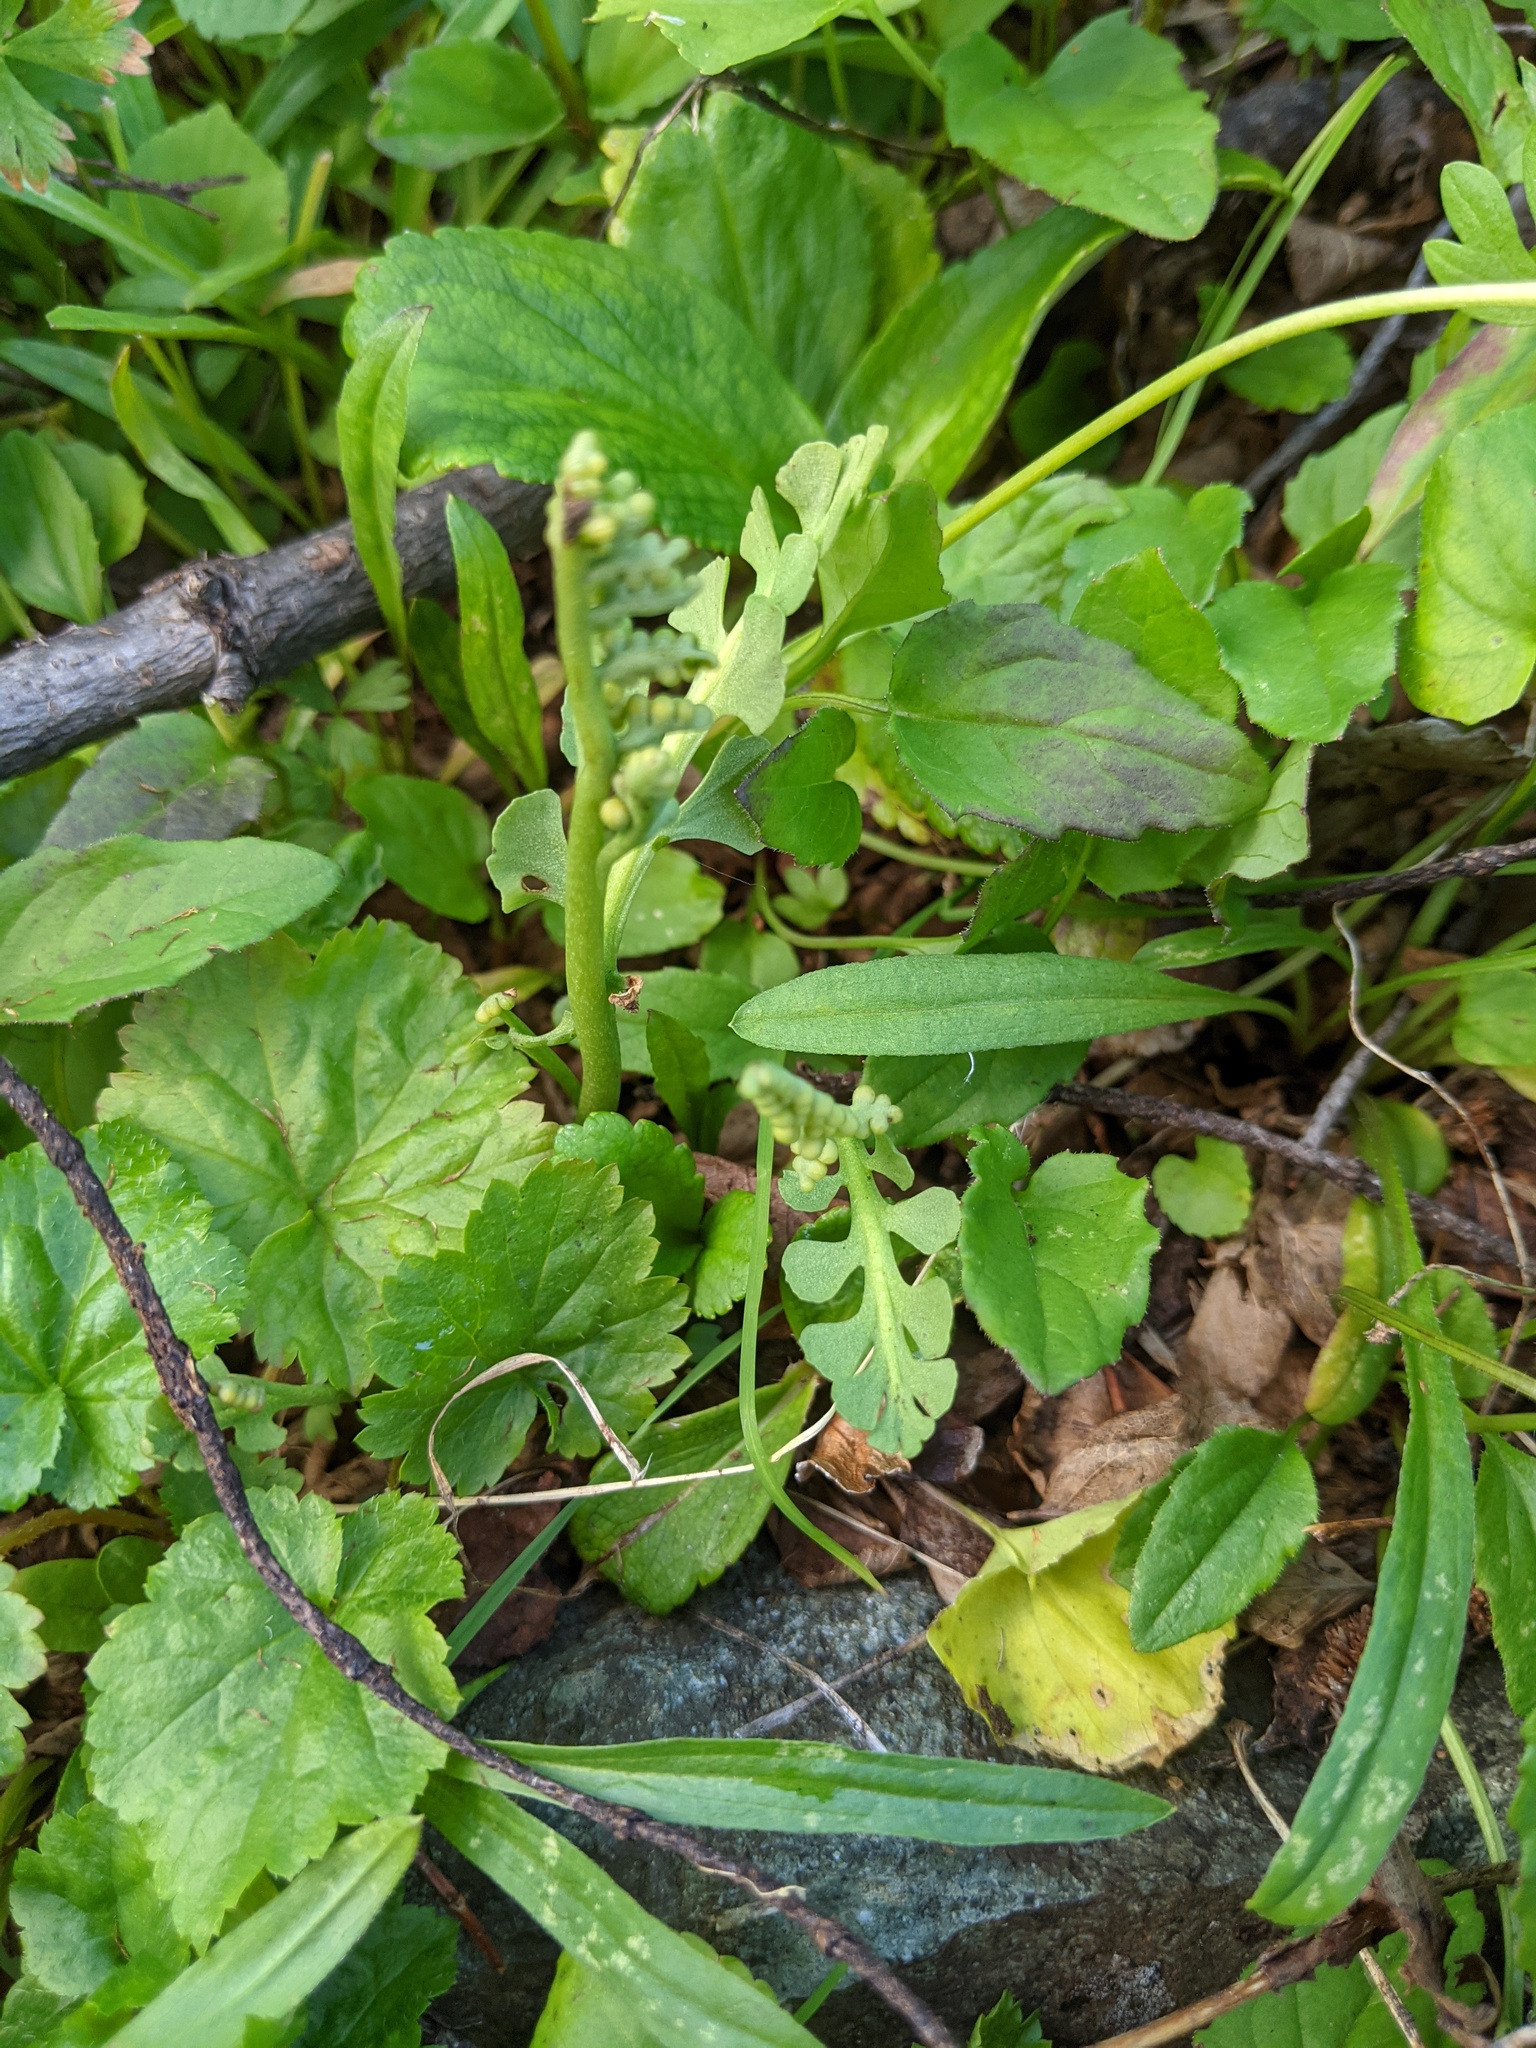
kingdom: Plantae
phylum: Tracheophyta
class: Polypodiopsida
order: Ophioglossales
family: Ophioglossaceae
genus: Botrychium
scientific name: Botrychium minganense
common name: Mingan grapefern
